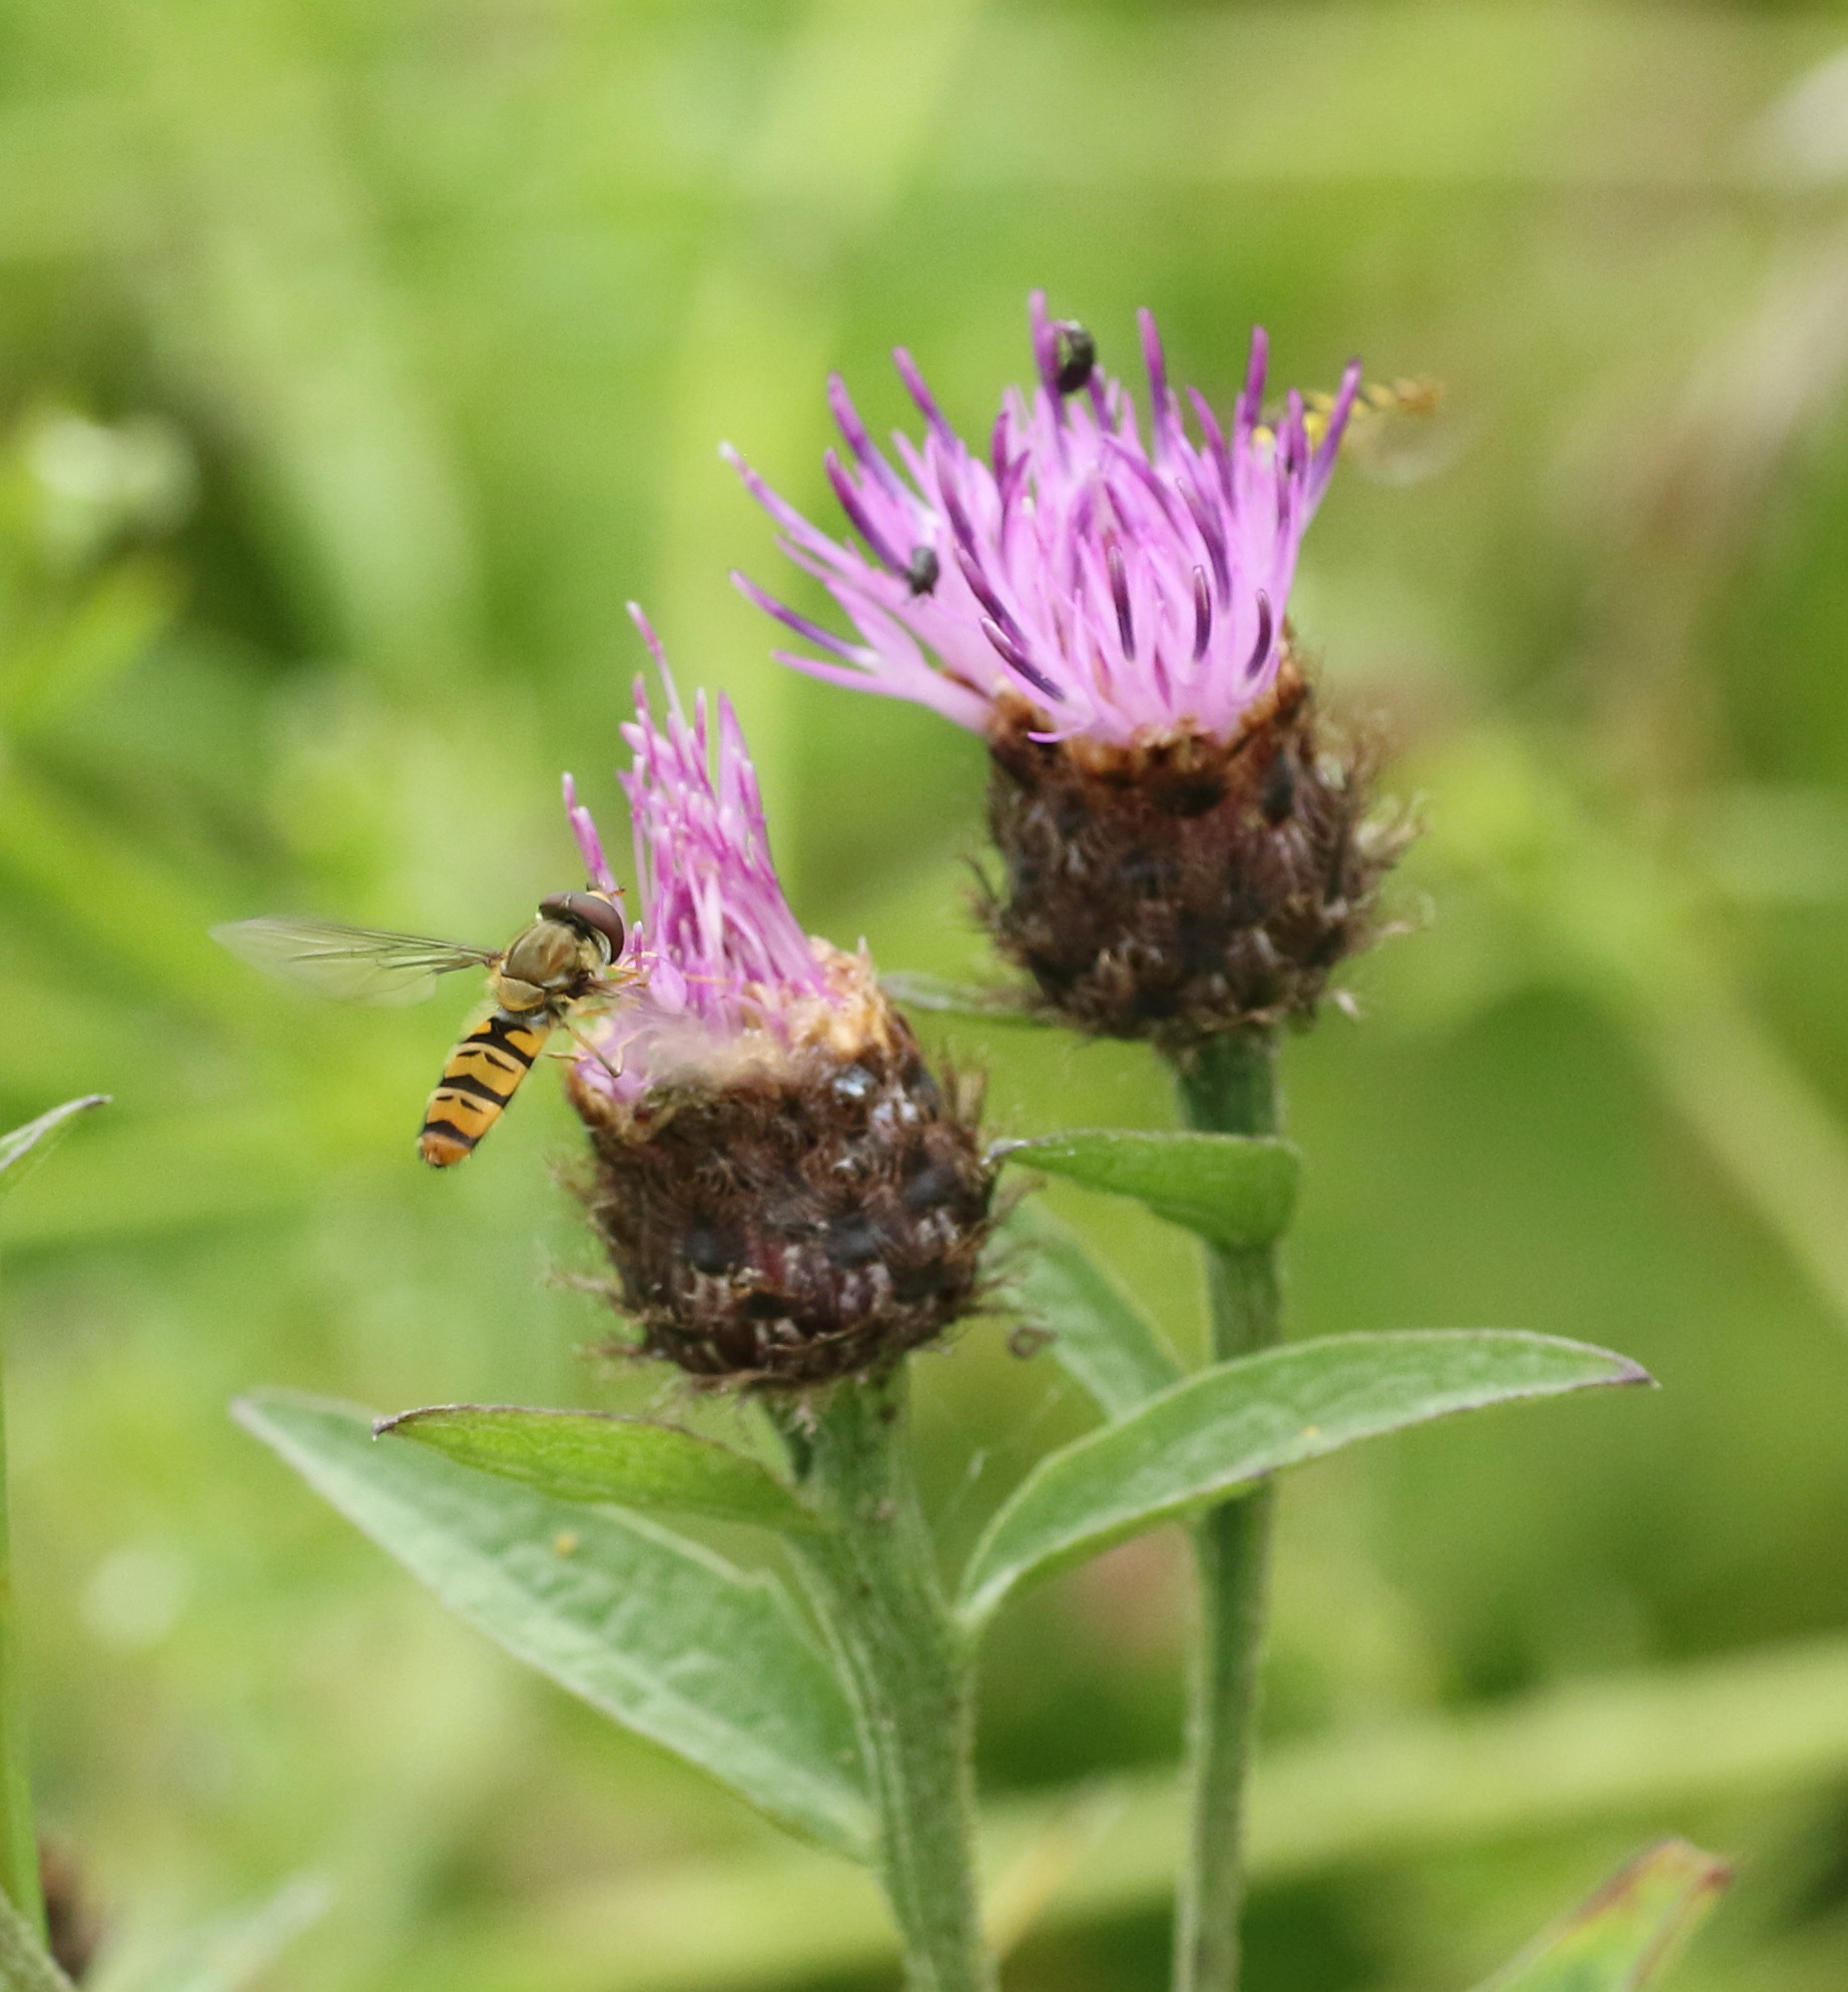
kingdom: Plantae
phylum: Tracheophyta
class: Magnoliopsida
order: Asterales
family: Asteraceae
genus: Centaurea
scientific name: Centaurea nigra
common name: Lesser knapweed
